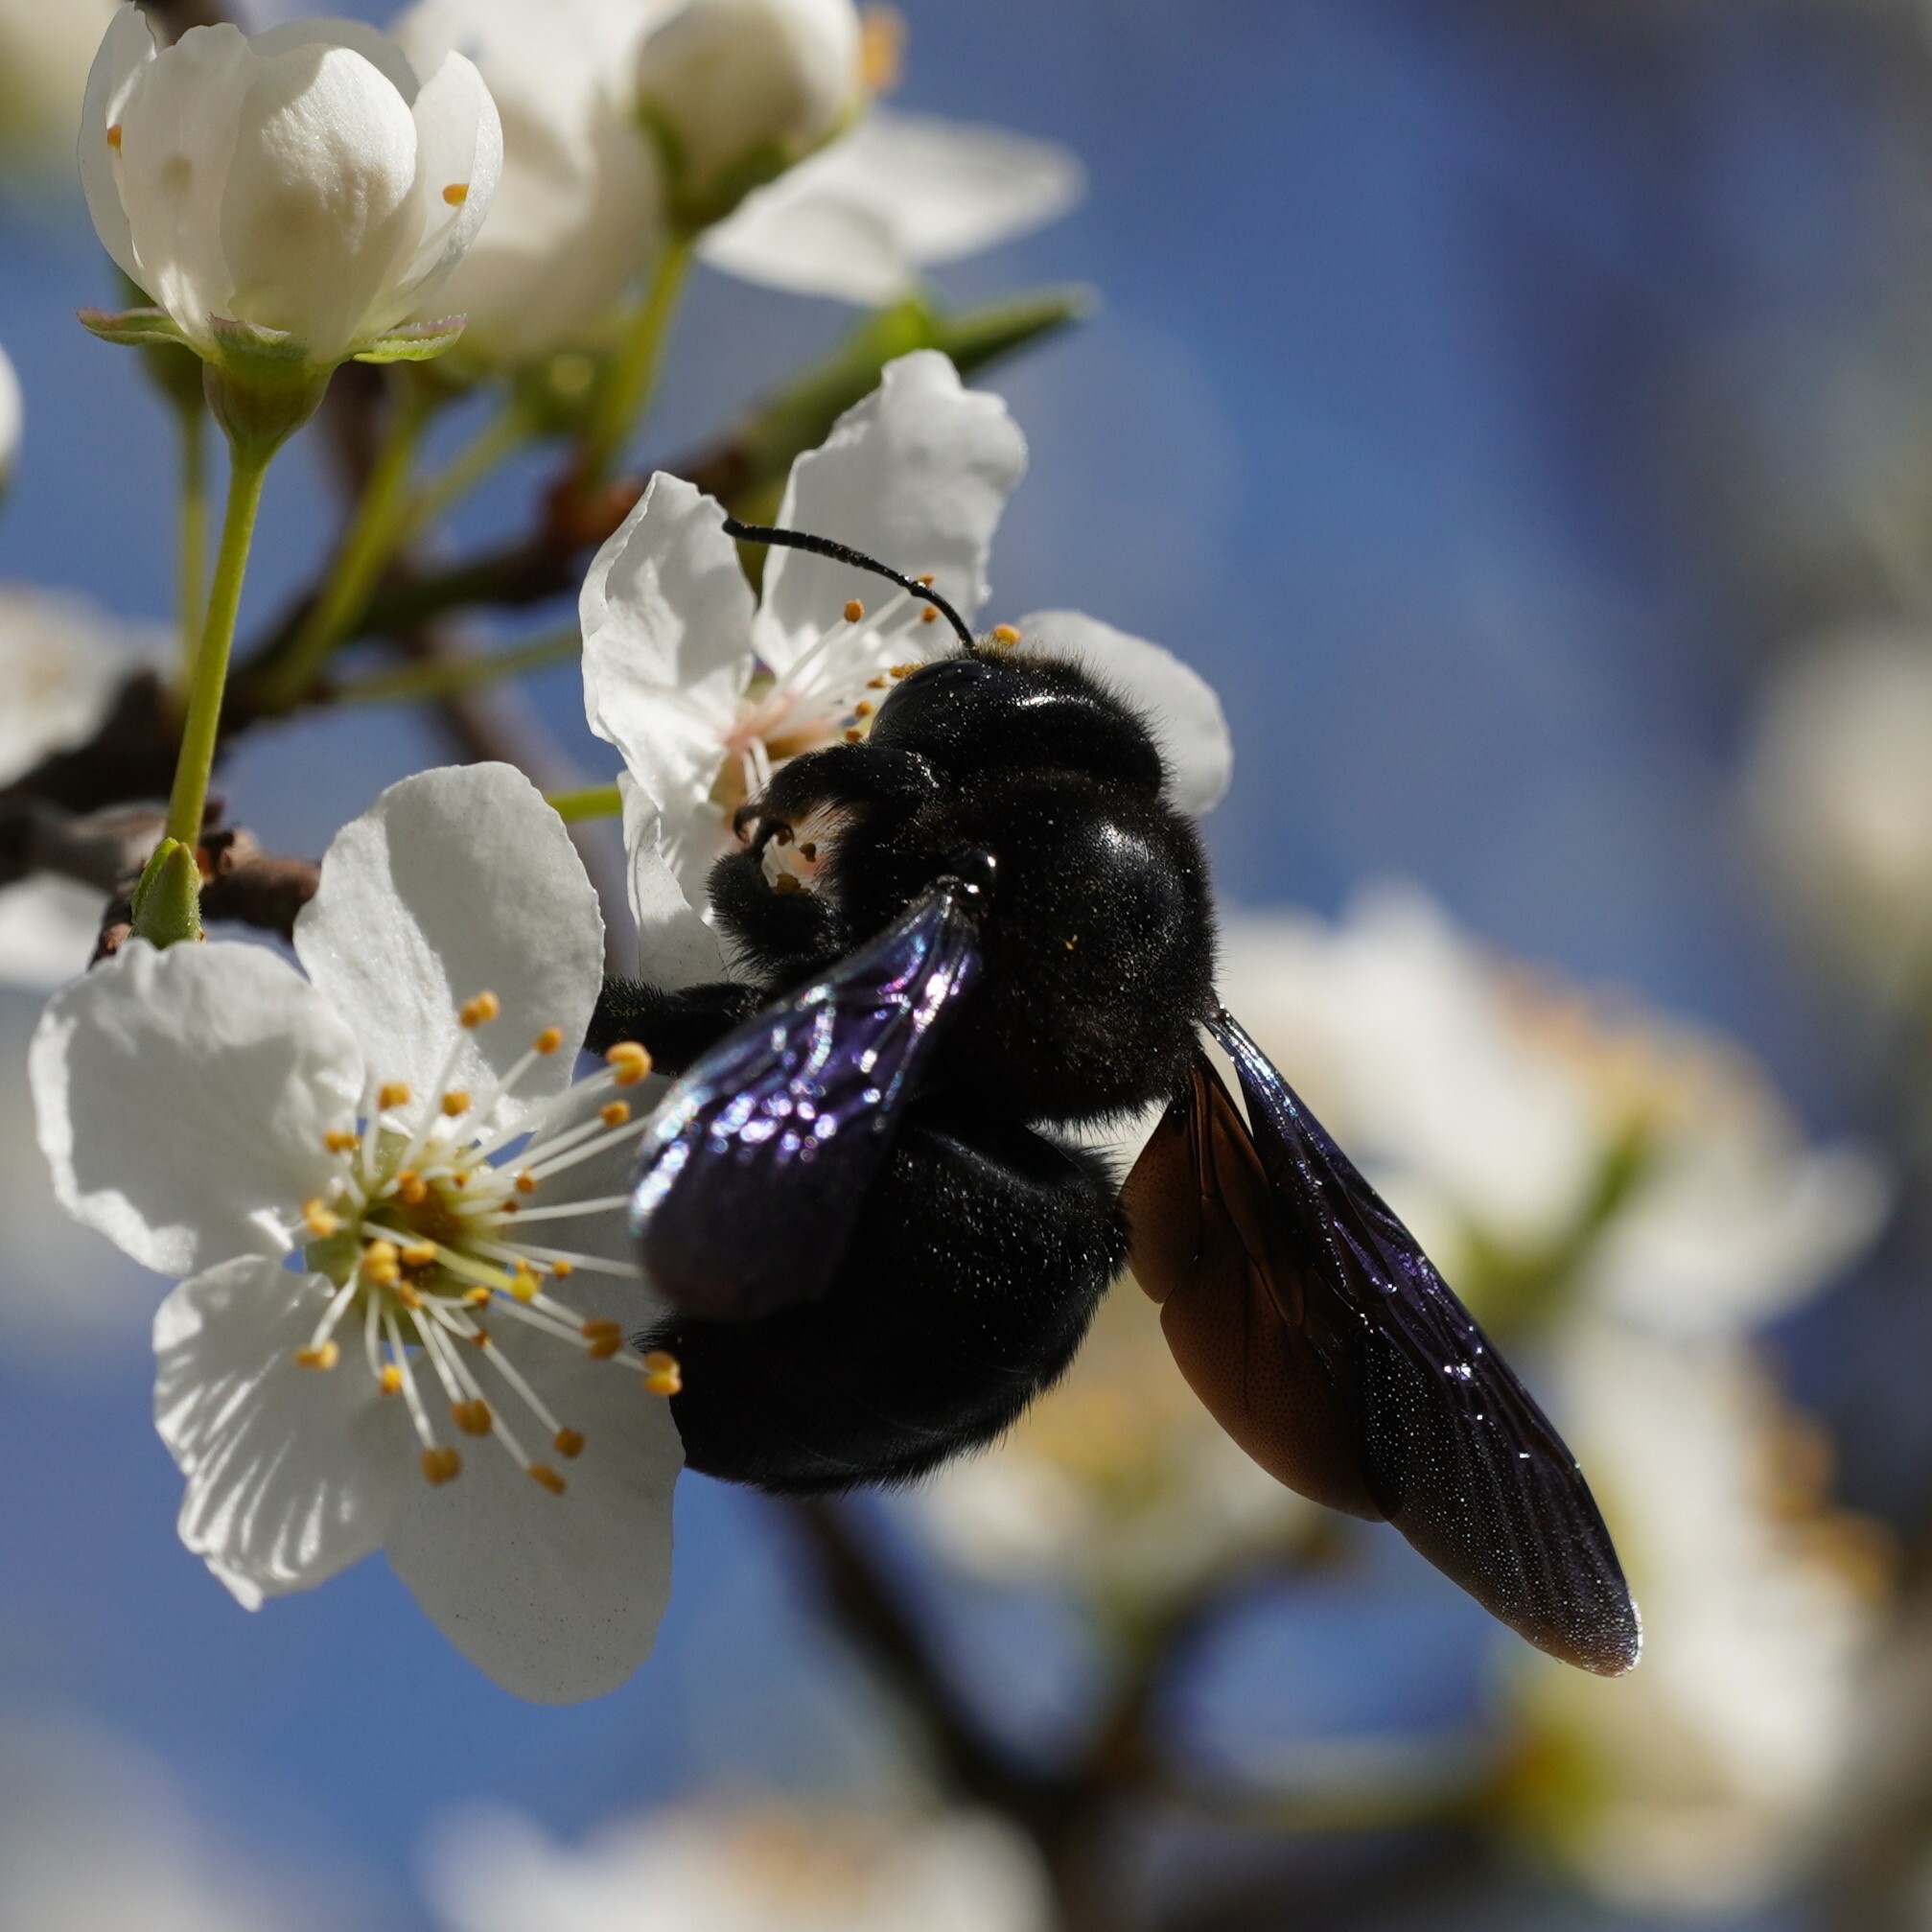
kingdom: Animalia
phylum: Arthropoda
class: Insecta
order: Hymenoptera
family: Apidae
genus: Xylocopa
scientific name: Xylocopa violacea
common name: Violet carpenter bee
